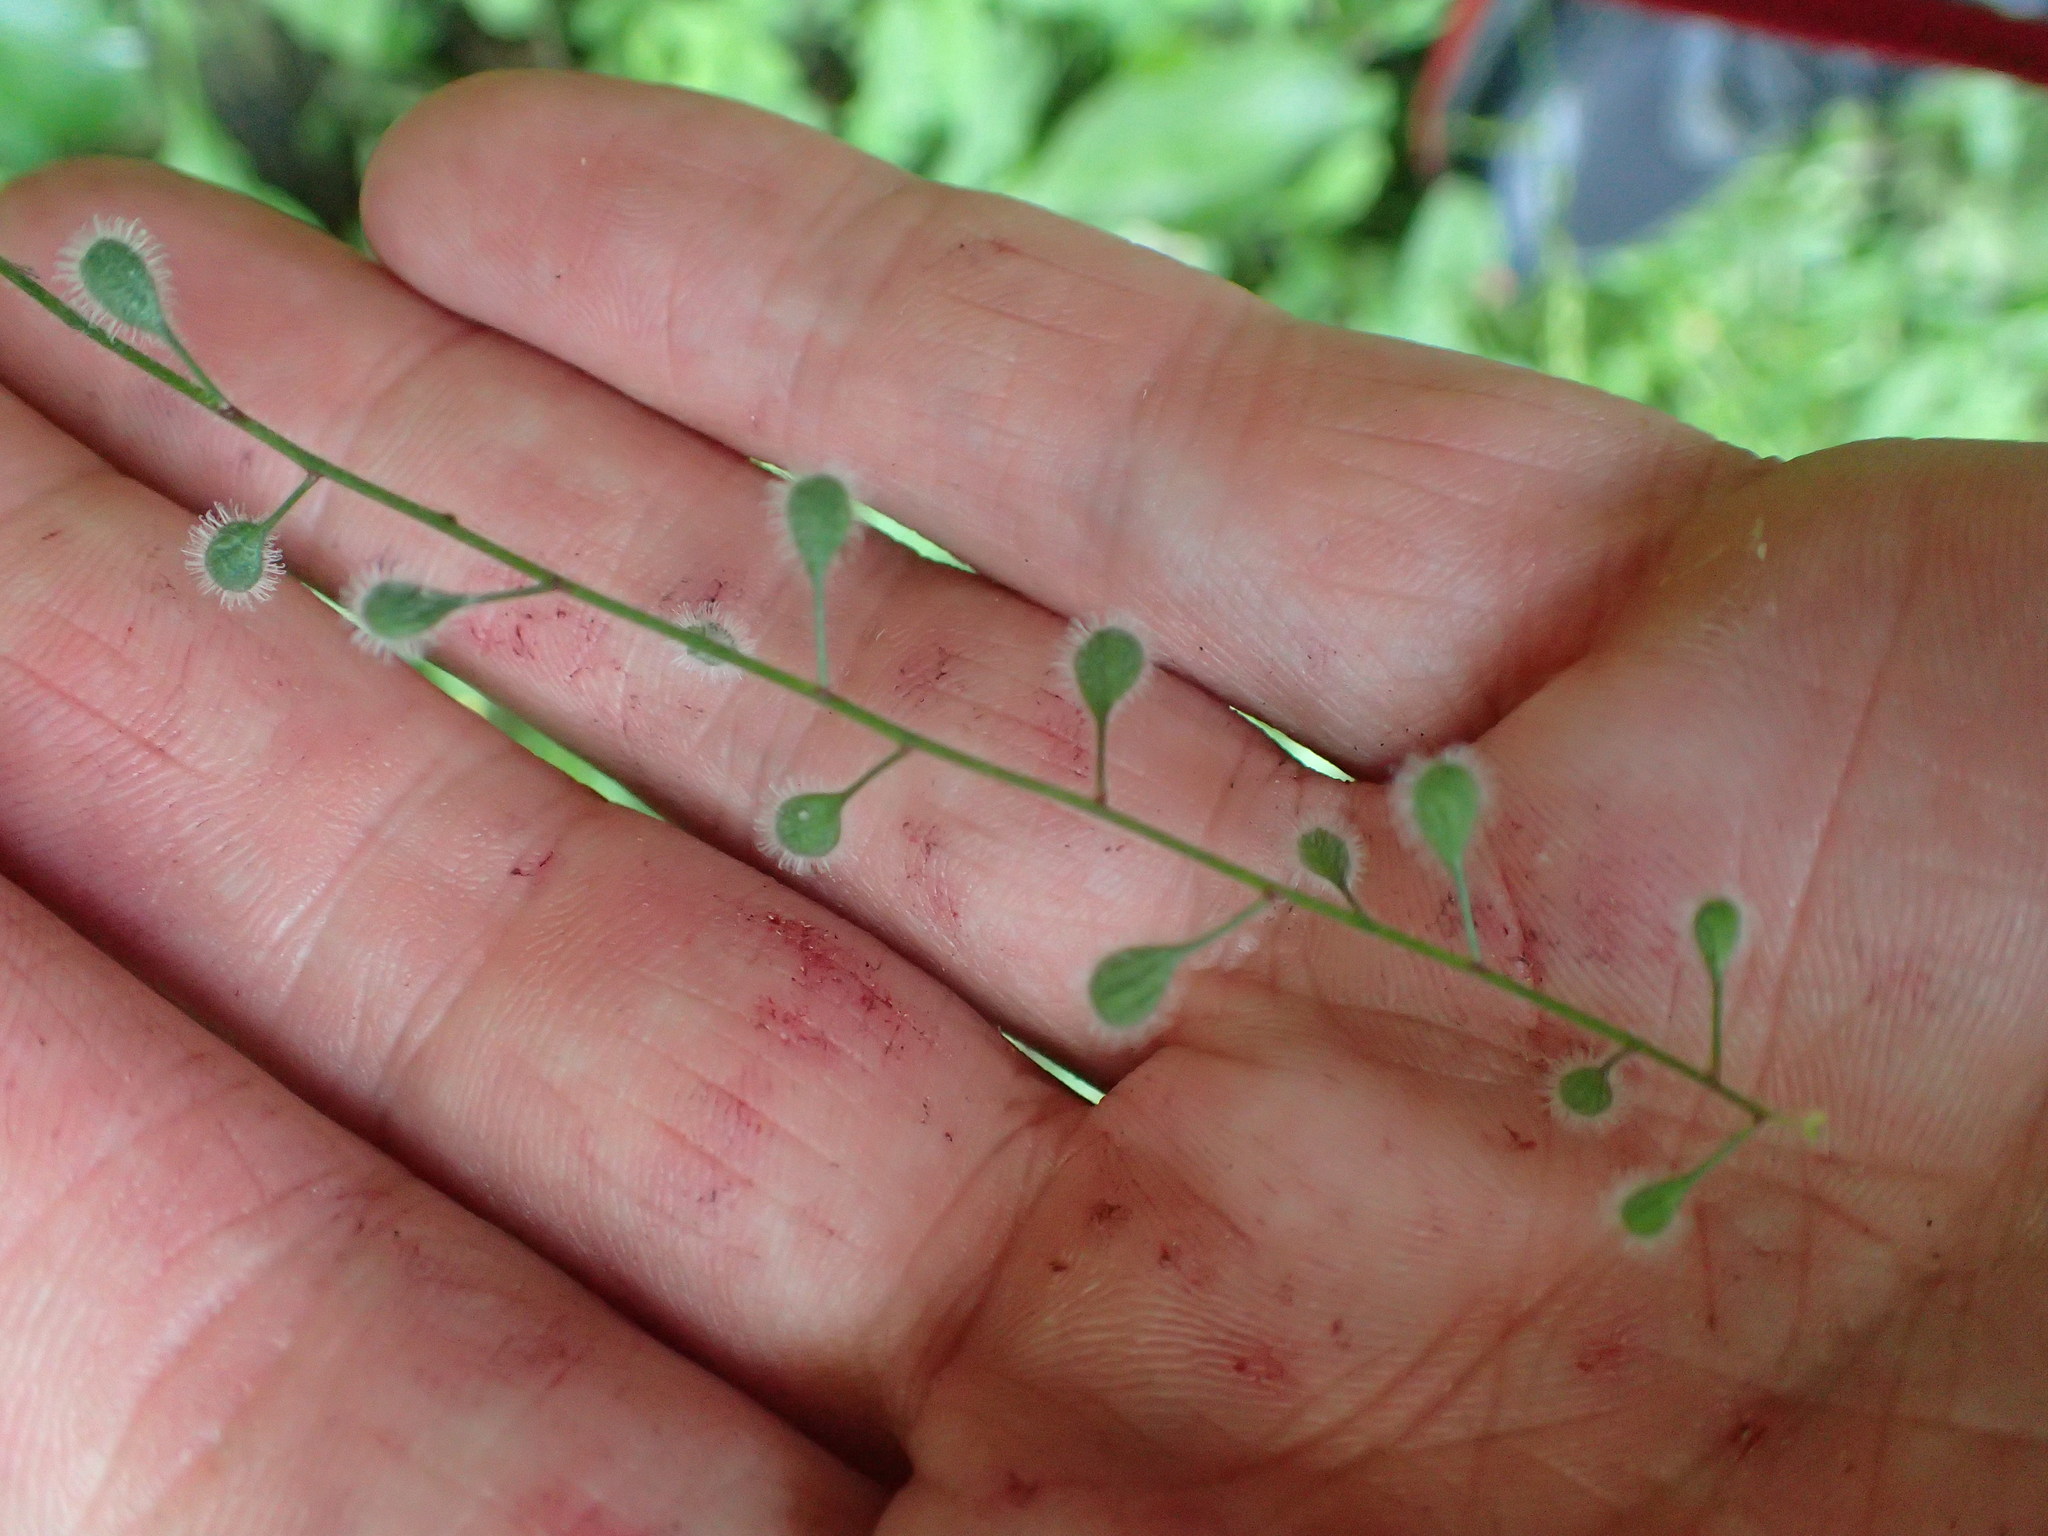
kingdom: Plantae
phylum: Tracheophyta
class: Magnoliopsida
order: Myrtales
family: Onagraceae
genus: Circaea
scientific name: Circaea canadensis
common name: Broad-leaved enchanter's nightshade
